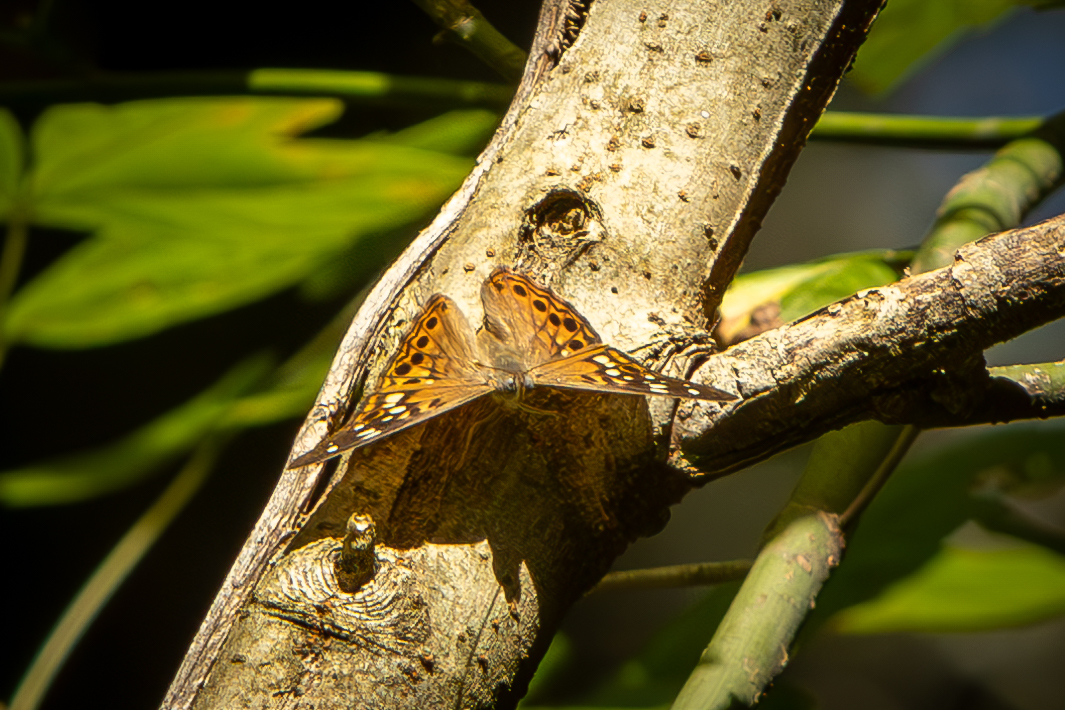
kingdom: Animalia
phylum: Arthropoda
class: Insecta
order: Lepidoptera
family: Nymphalidae
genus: Asterocampa
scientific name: Asterocampa celtis
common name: Hackberry emperor
